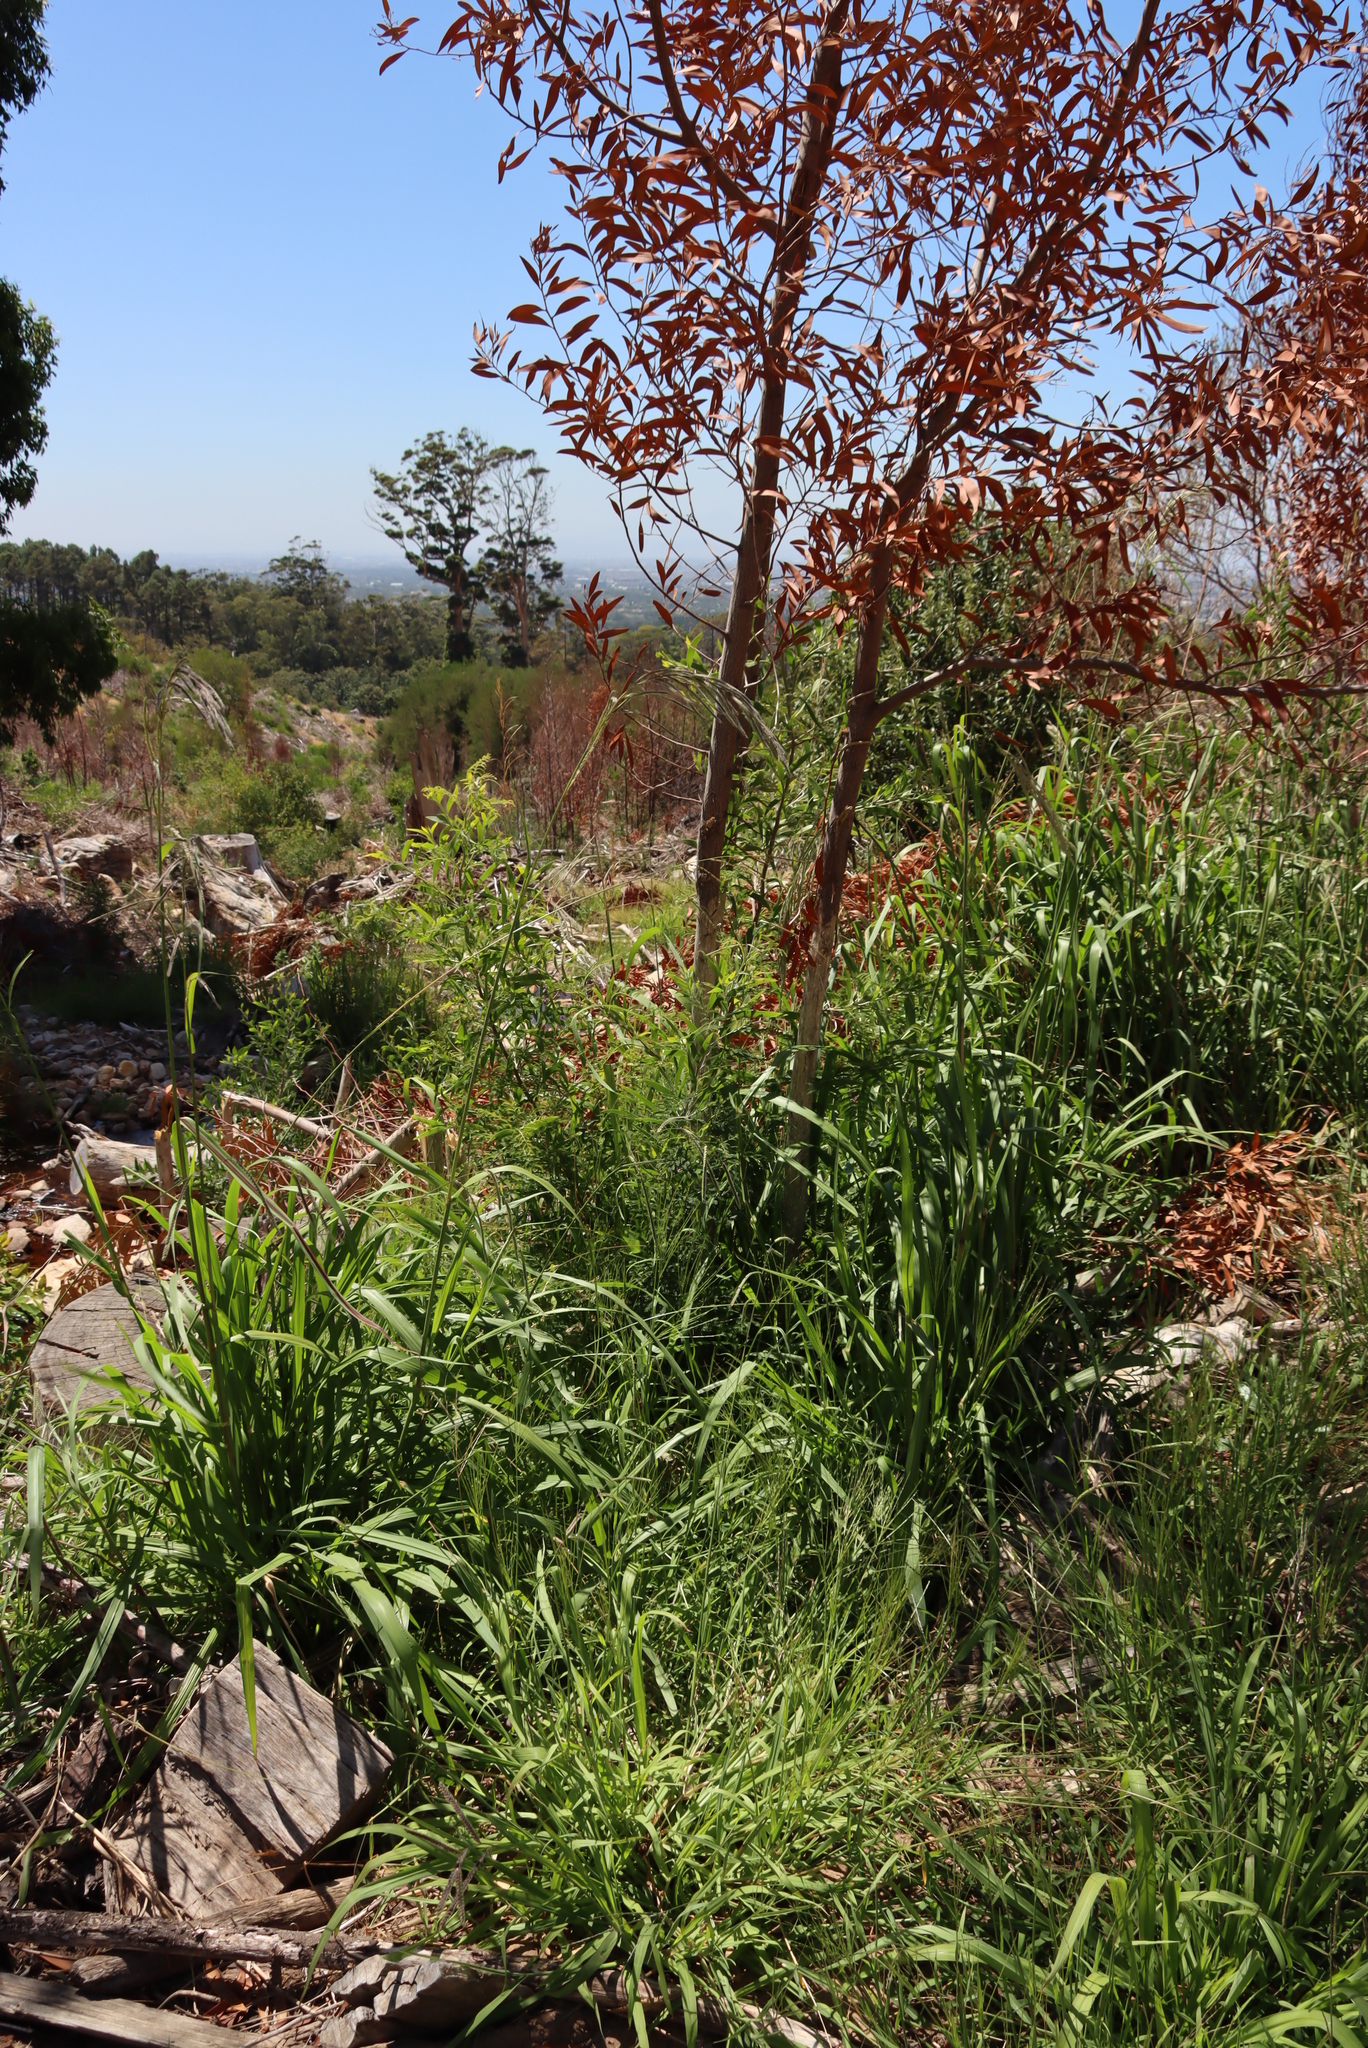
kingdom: Plantae
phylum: Tracheophyta
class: Liliopsida
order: Poales
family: Poaceae
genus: Paspalum
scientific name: Paspalum urvillei
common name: Vasey's grass
